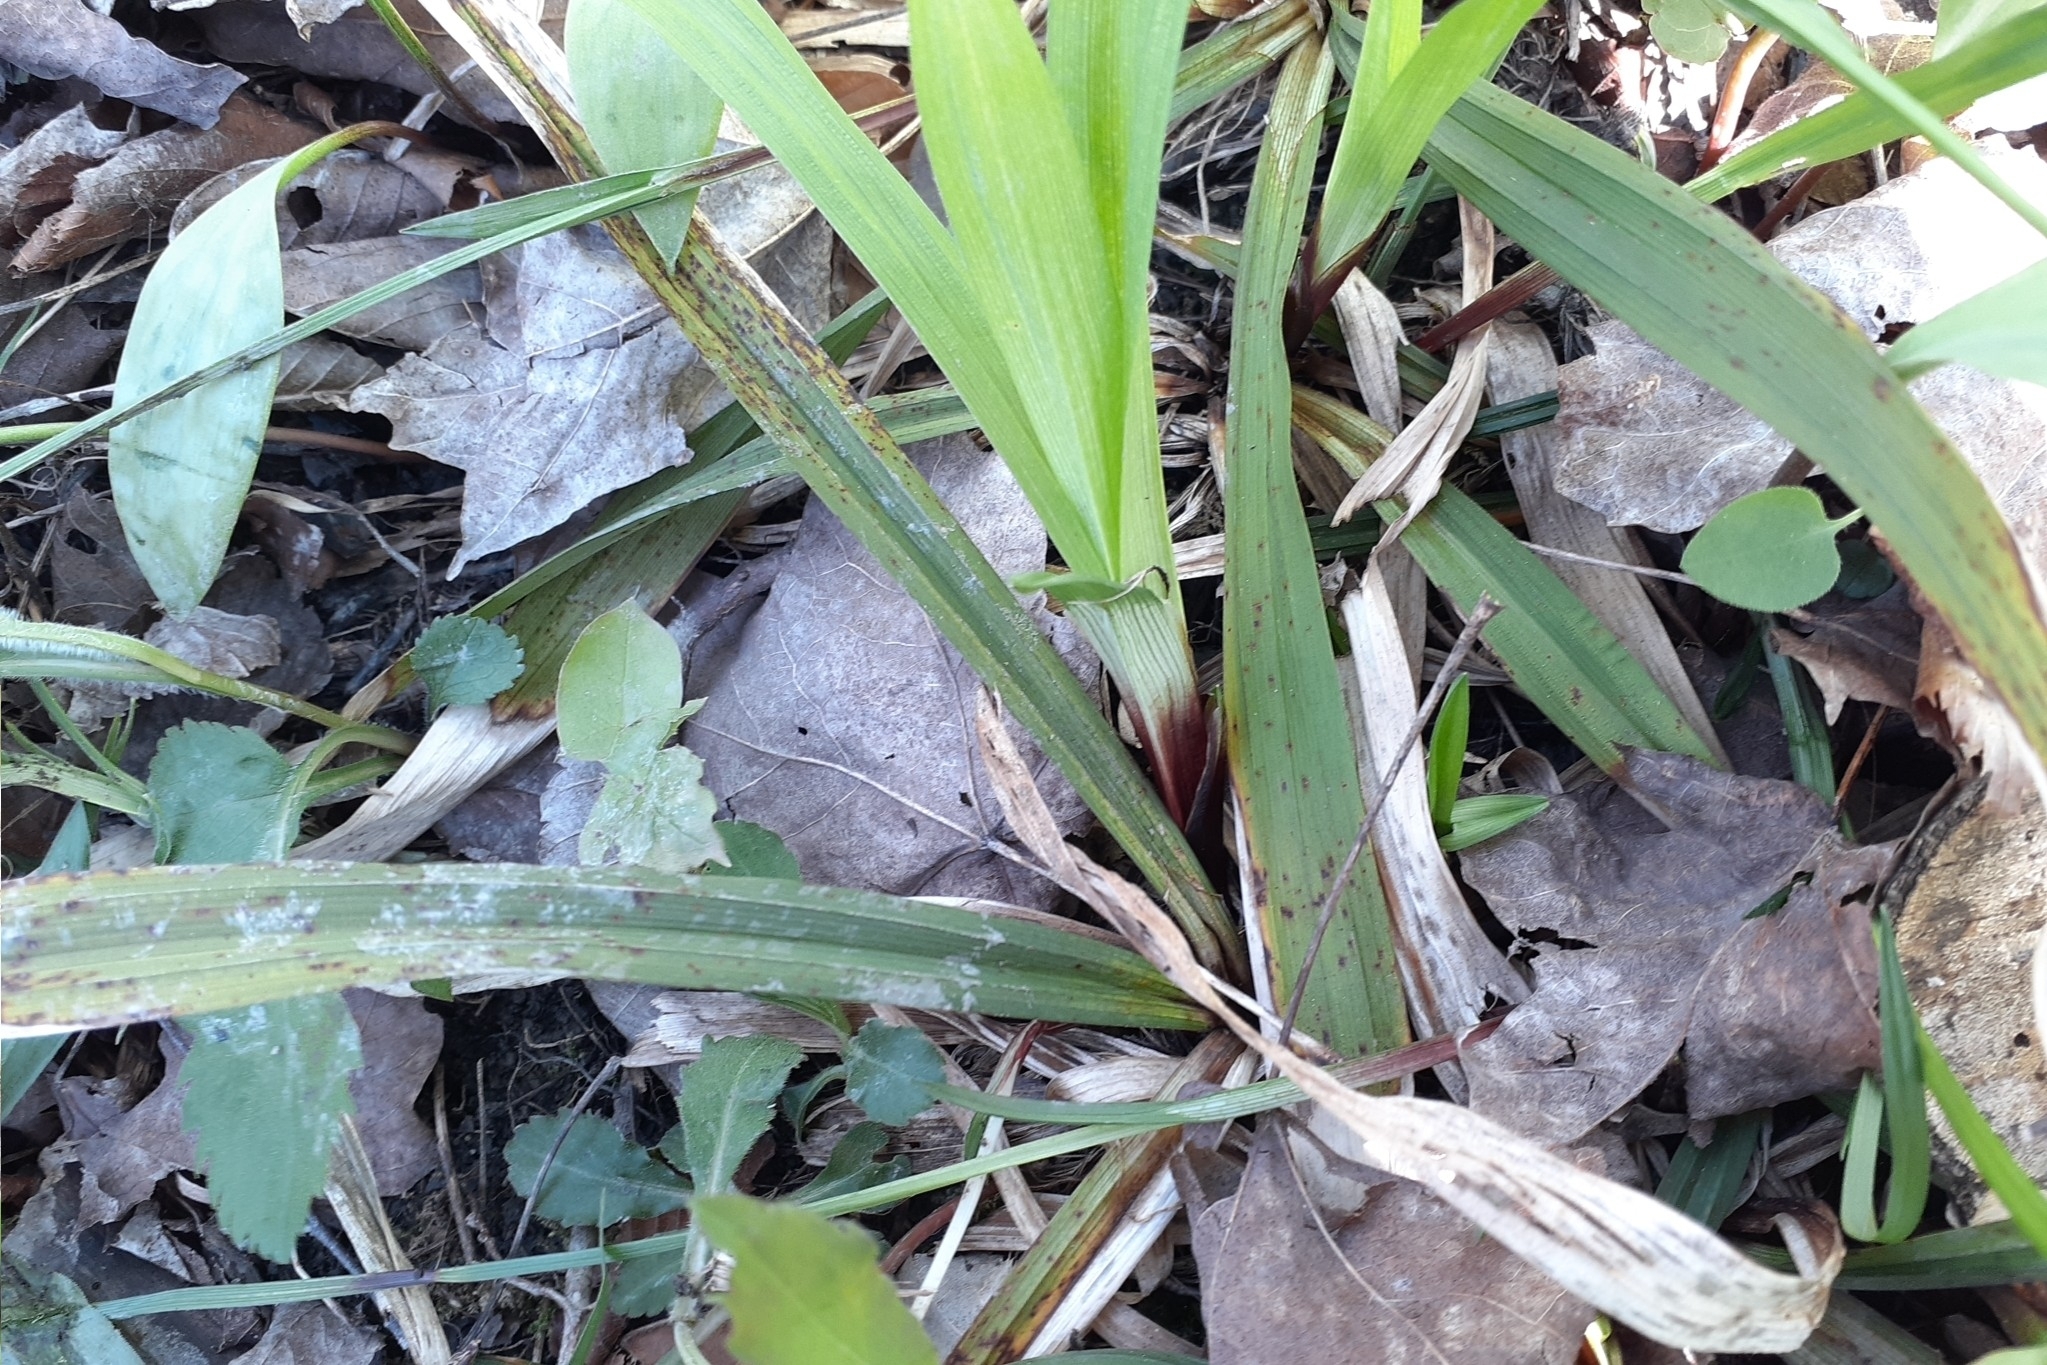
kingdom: Plantae
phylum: Tracheophyta
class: Liliopsida
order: Poales
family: Cyperaceae
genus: Carex
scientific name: Carex careyana
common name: Carey's sedge
